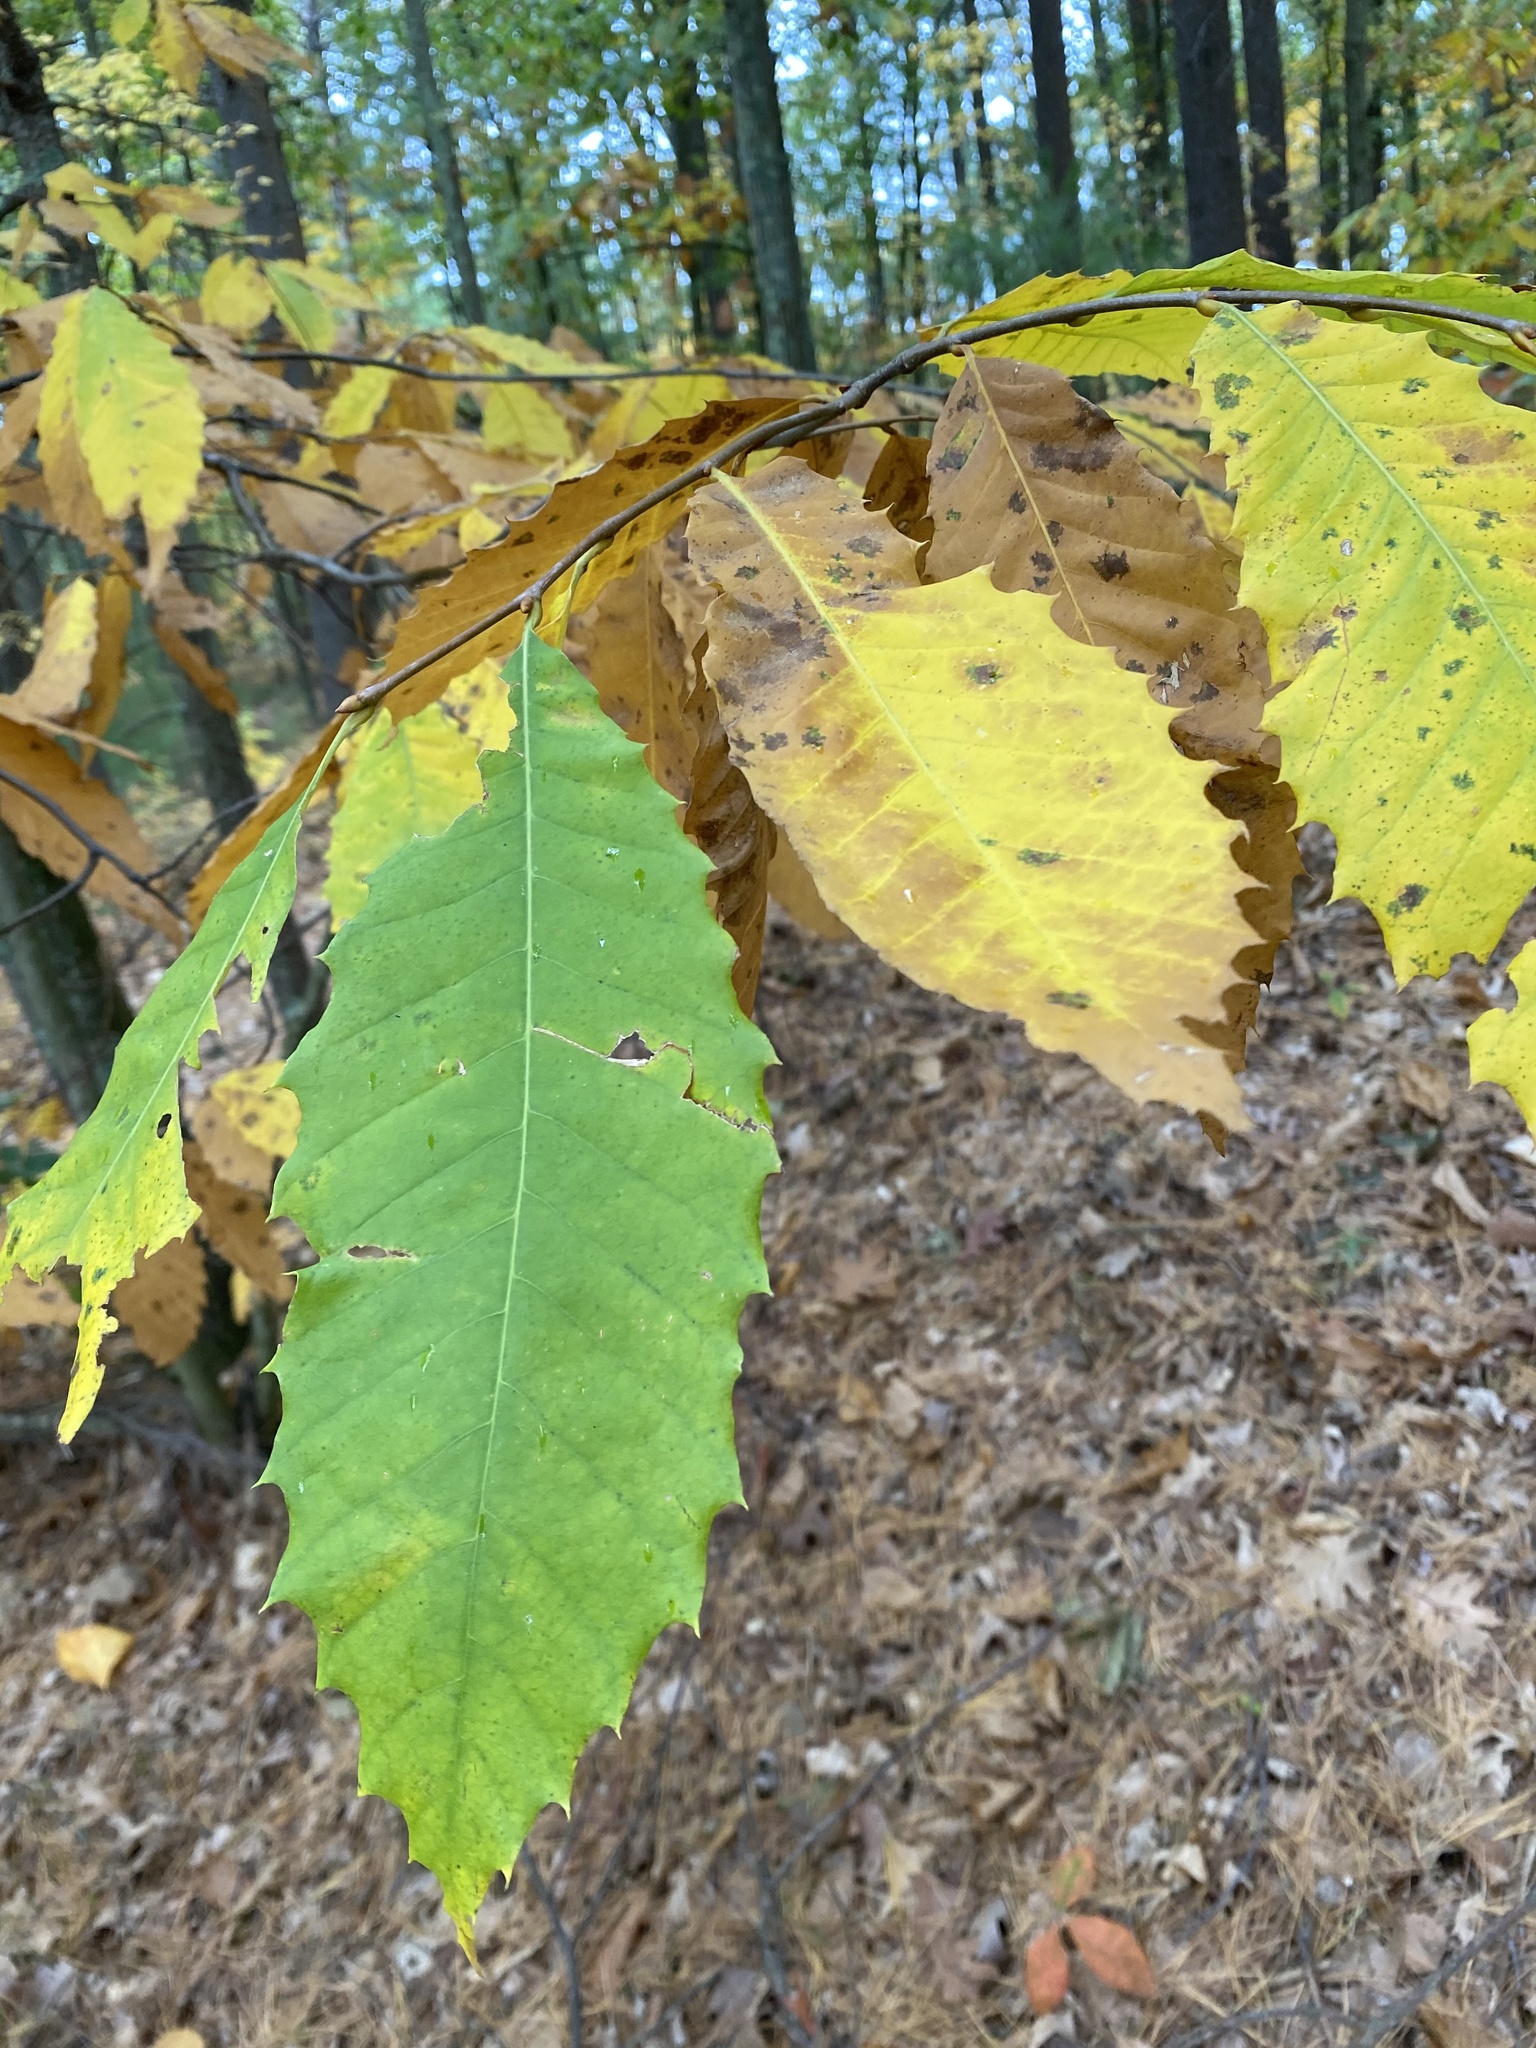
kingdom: Plantae
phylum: Tracheophyta
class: Magnoliopsida
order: Fagales
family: Fagaceae
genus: Castanea
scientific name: Castanea dentata
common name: American chestnut
